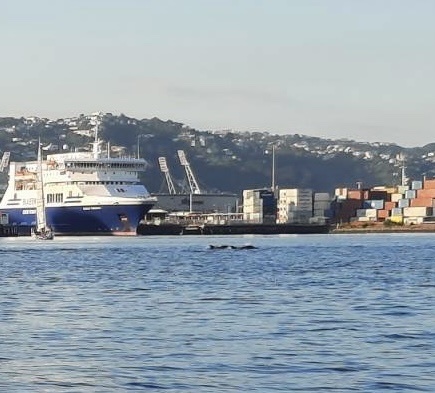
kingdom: Animalia
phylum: Chordata
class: Mammalia
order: Cetacea
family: Delphinidae
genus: Tursiops
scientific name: Tursiops truncatus
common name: Bottlenose dolphin
